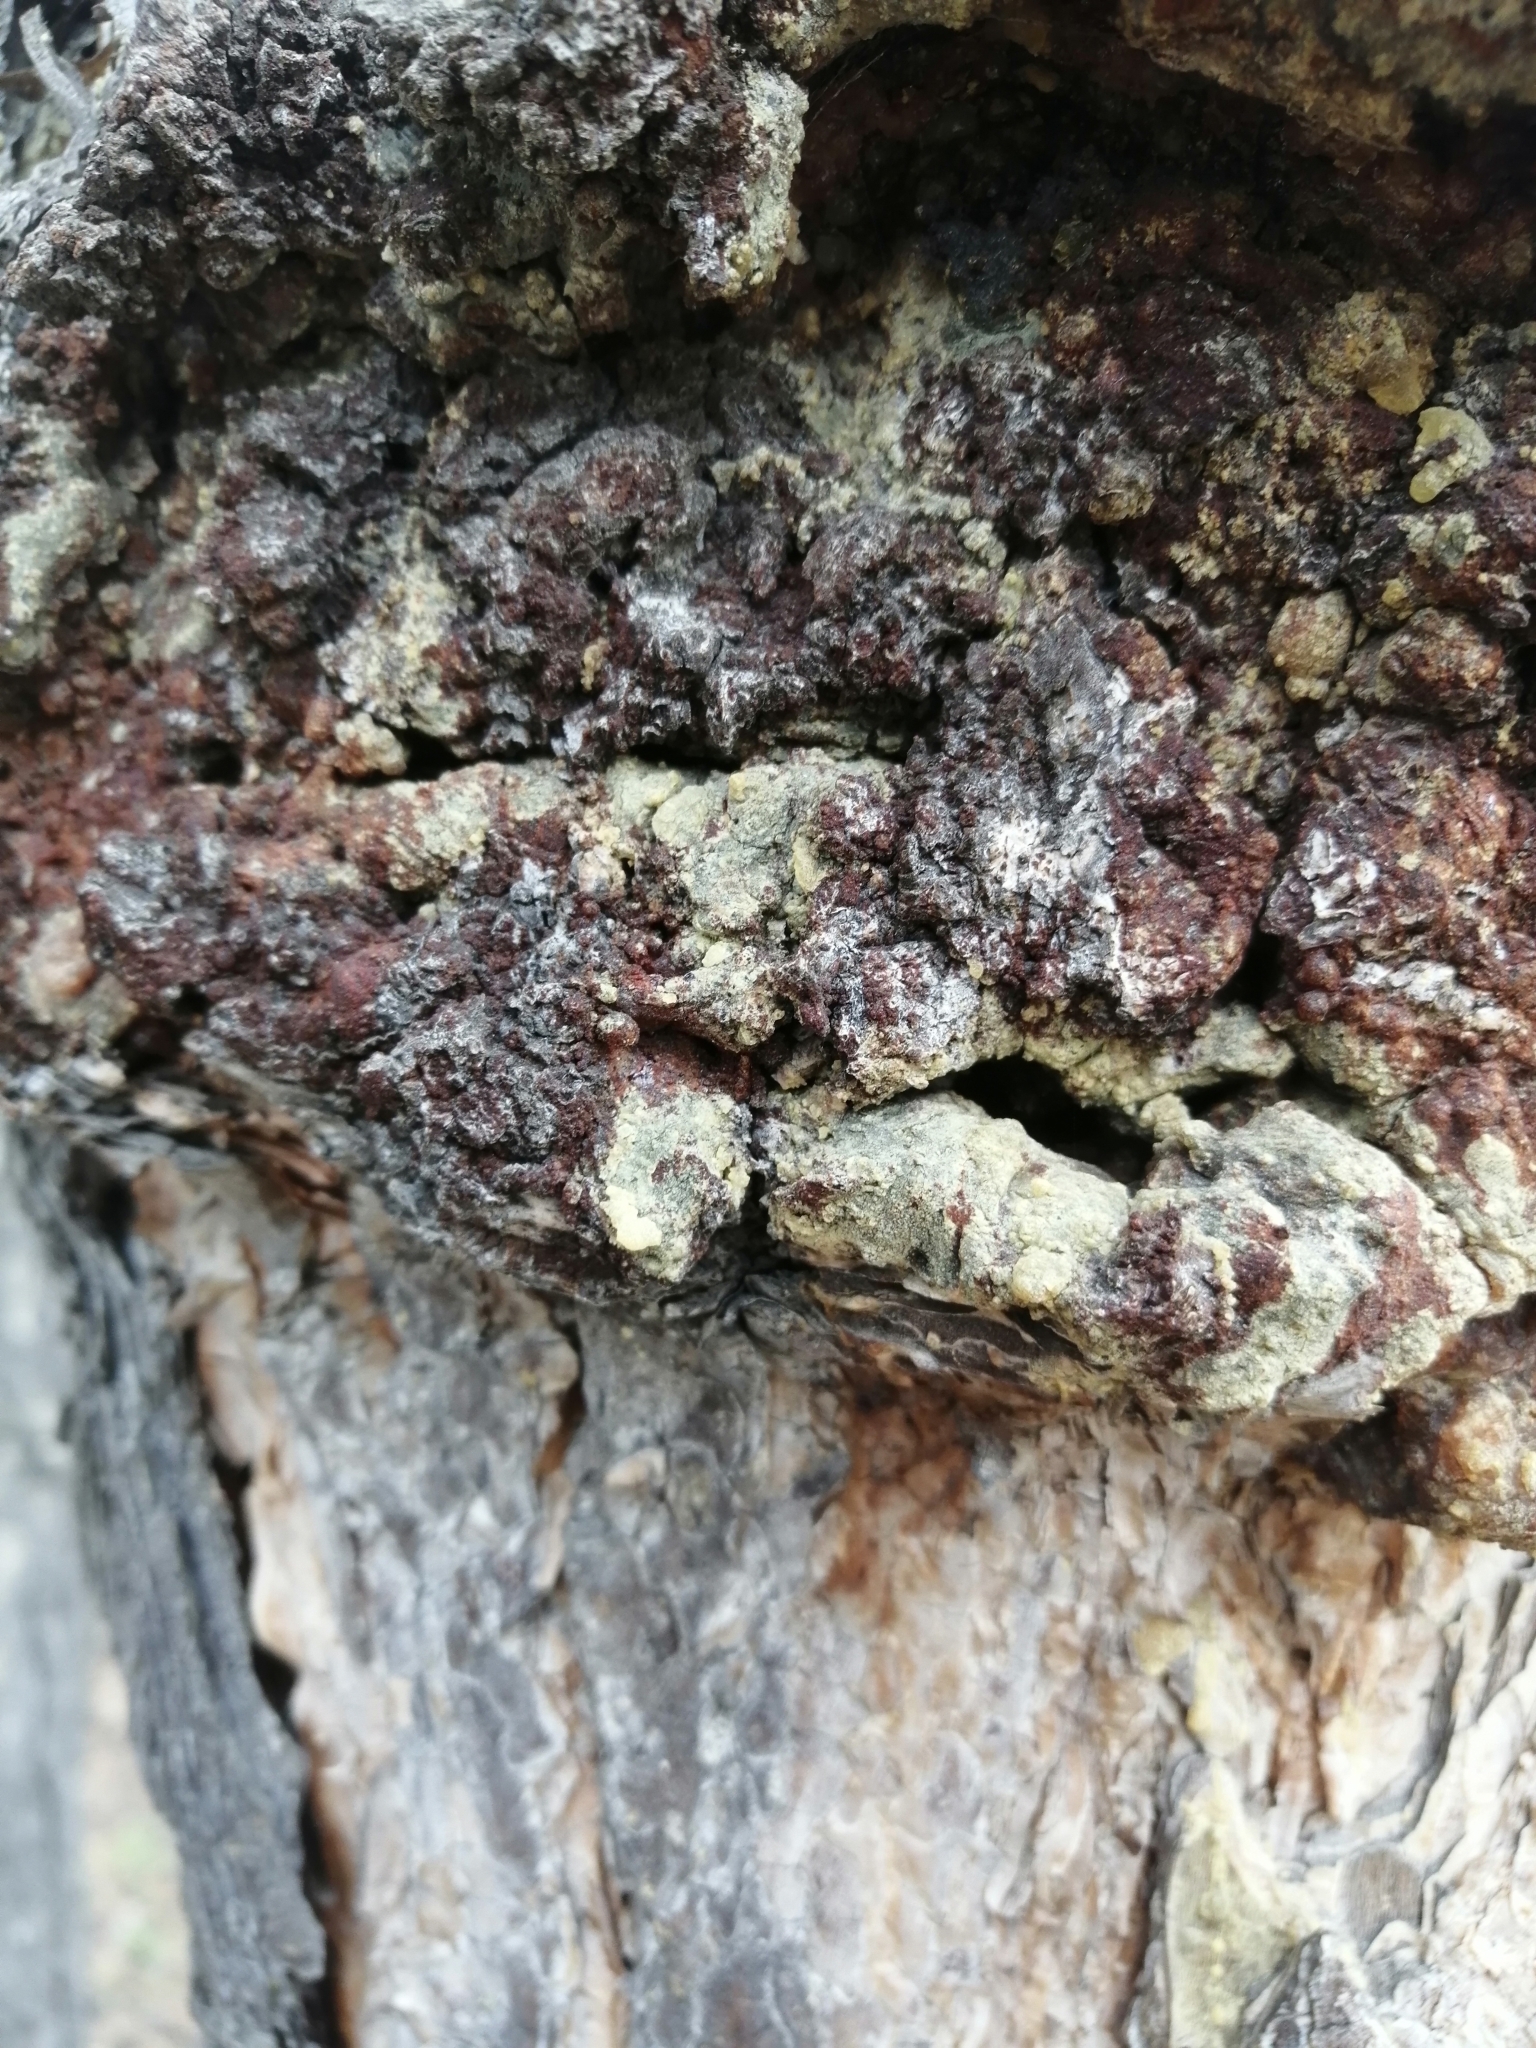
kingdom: Plantae
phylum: Tracheophyta
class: Pinopsida
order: Pinales
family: Pinaceae
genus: Pinus
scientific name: Pinus sylvestris
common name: Scots pine
